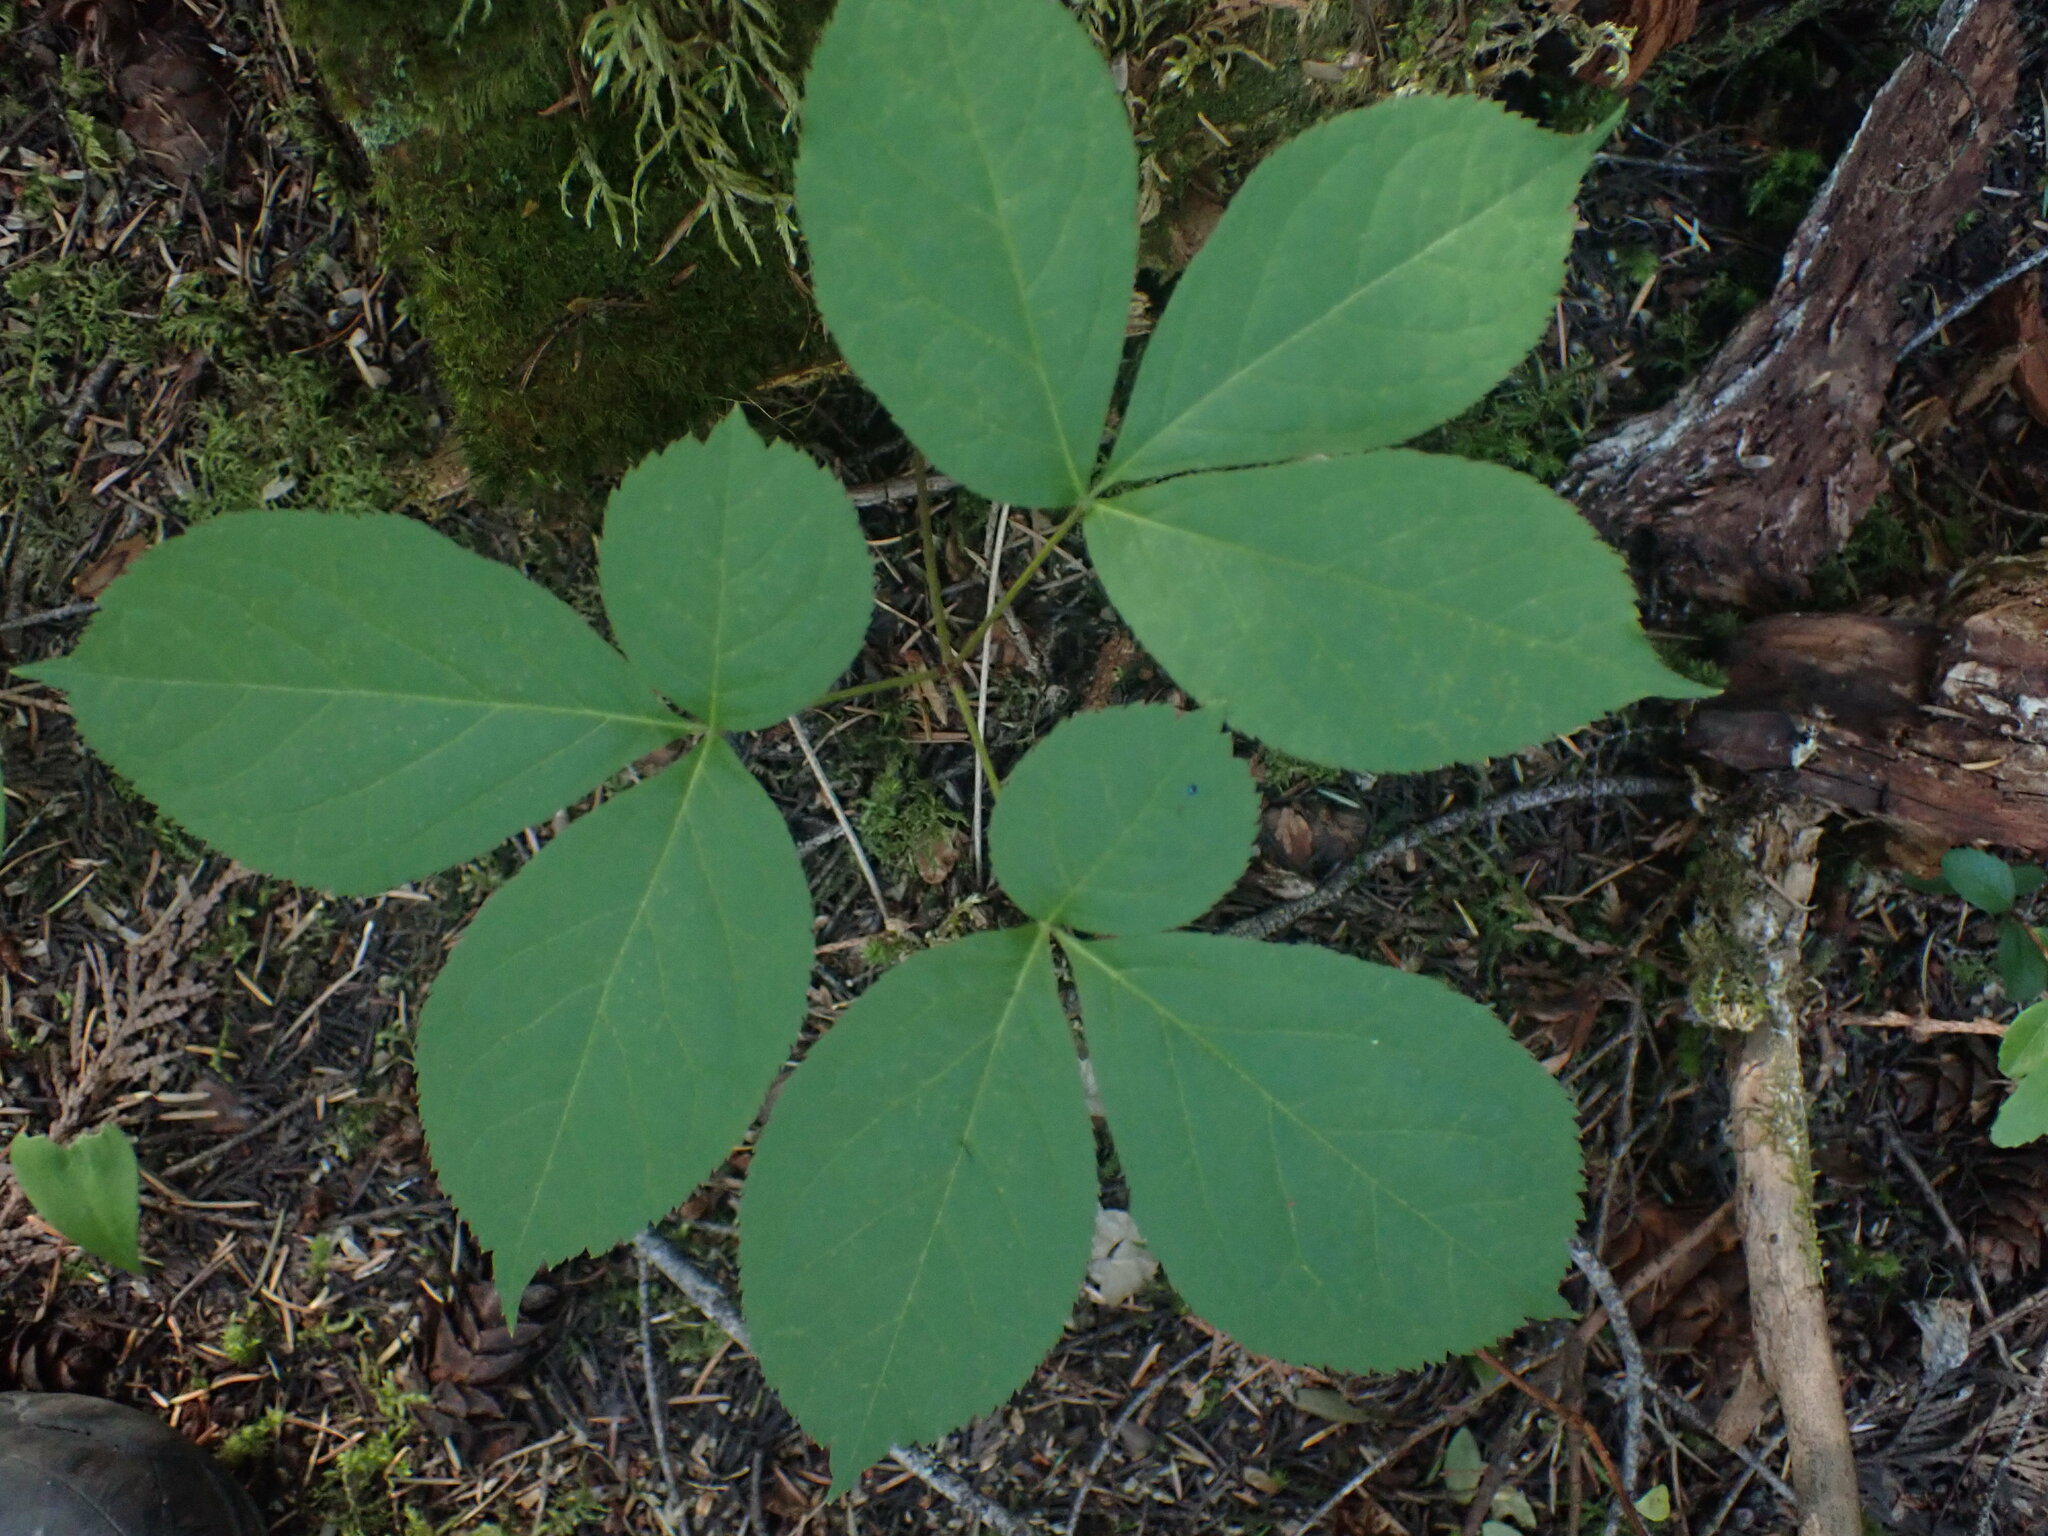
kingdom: Plantae
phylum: Tracheophyta
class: Magnoliopsida
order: Apiales
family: Araliaceae
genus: Aralia
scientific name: Aralia nudicaulis
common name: Wild sarsaparilla
